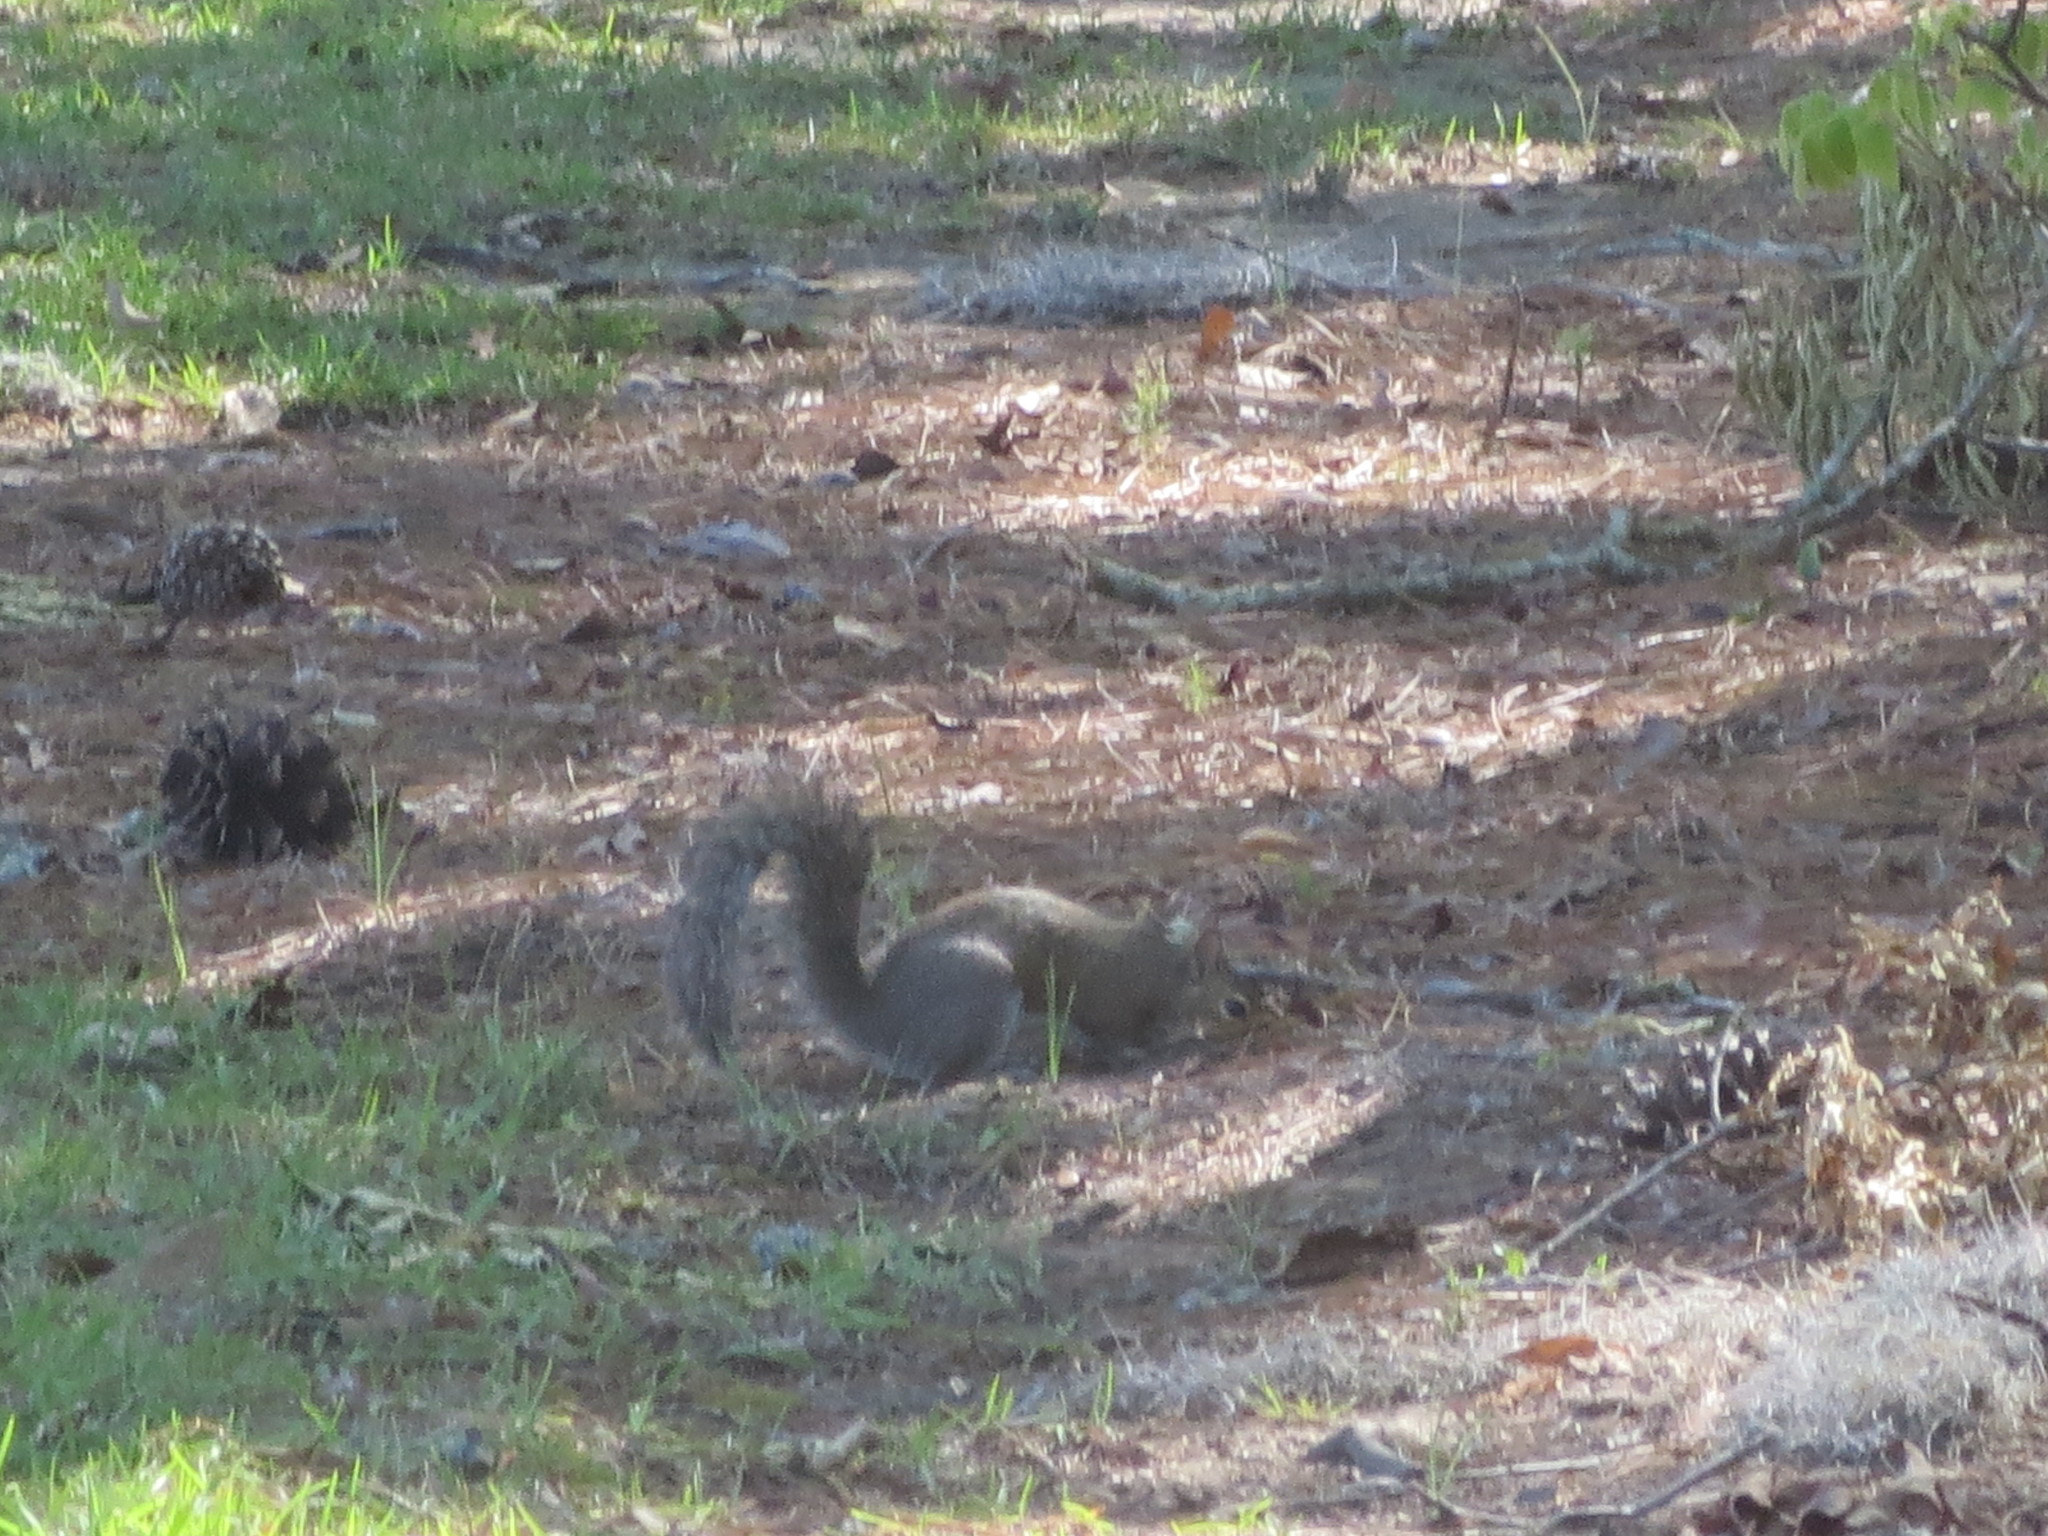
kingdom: Animalia
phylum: Chordata
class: Mammalia
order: Rodentia
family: Sciuridae
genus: Sciurus
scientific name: Sciurus carolinensis
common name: Eastern gray squirrel
